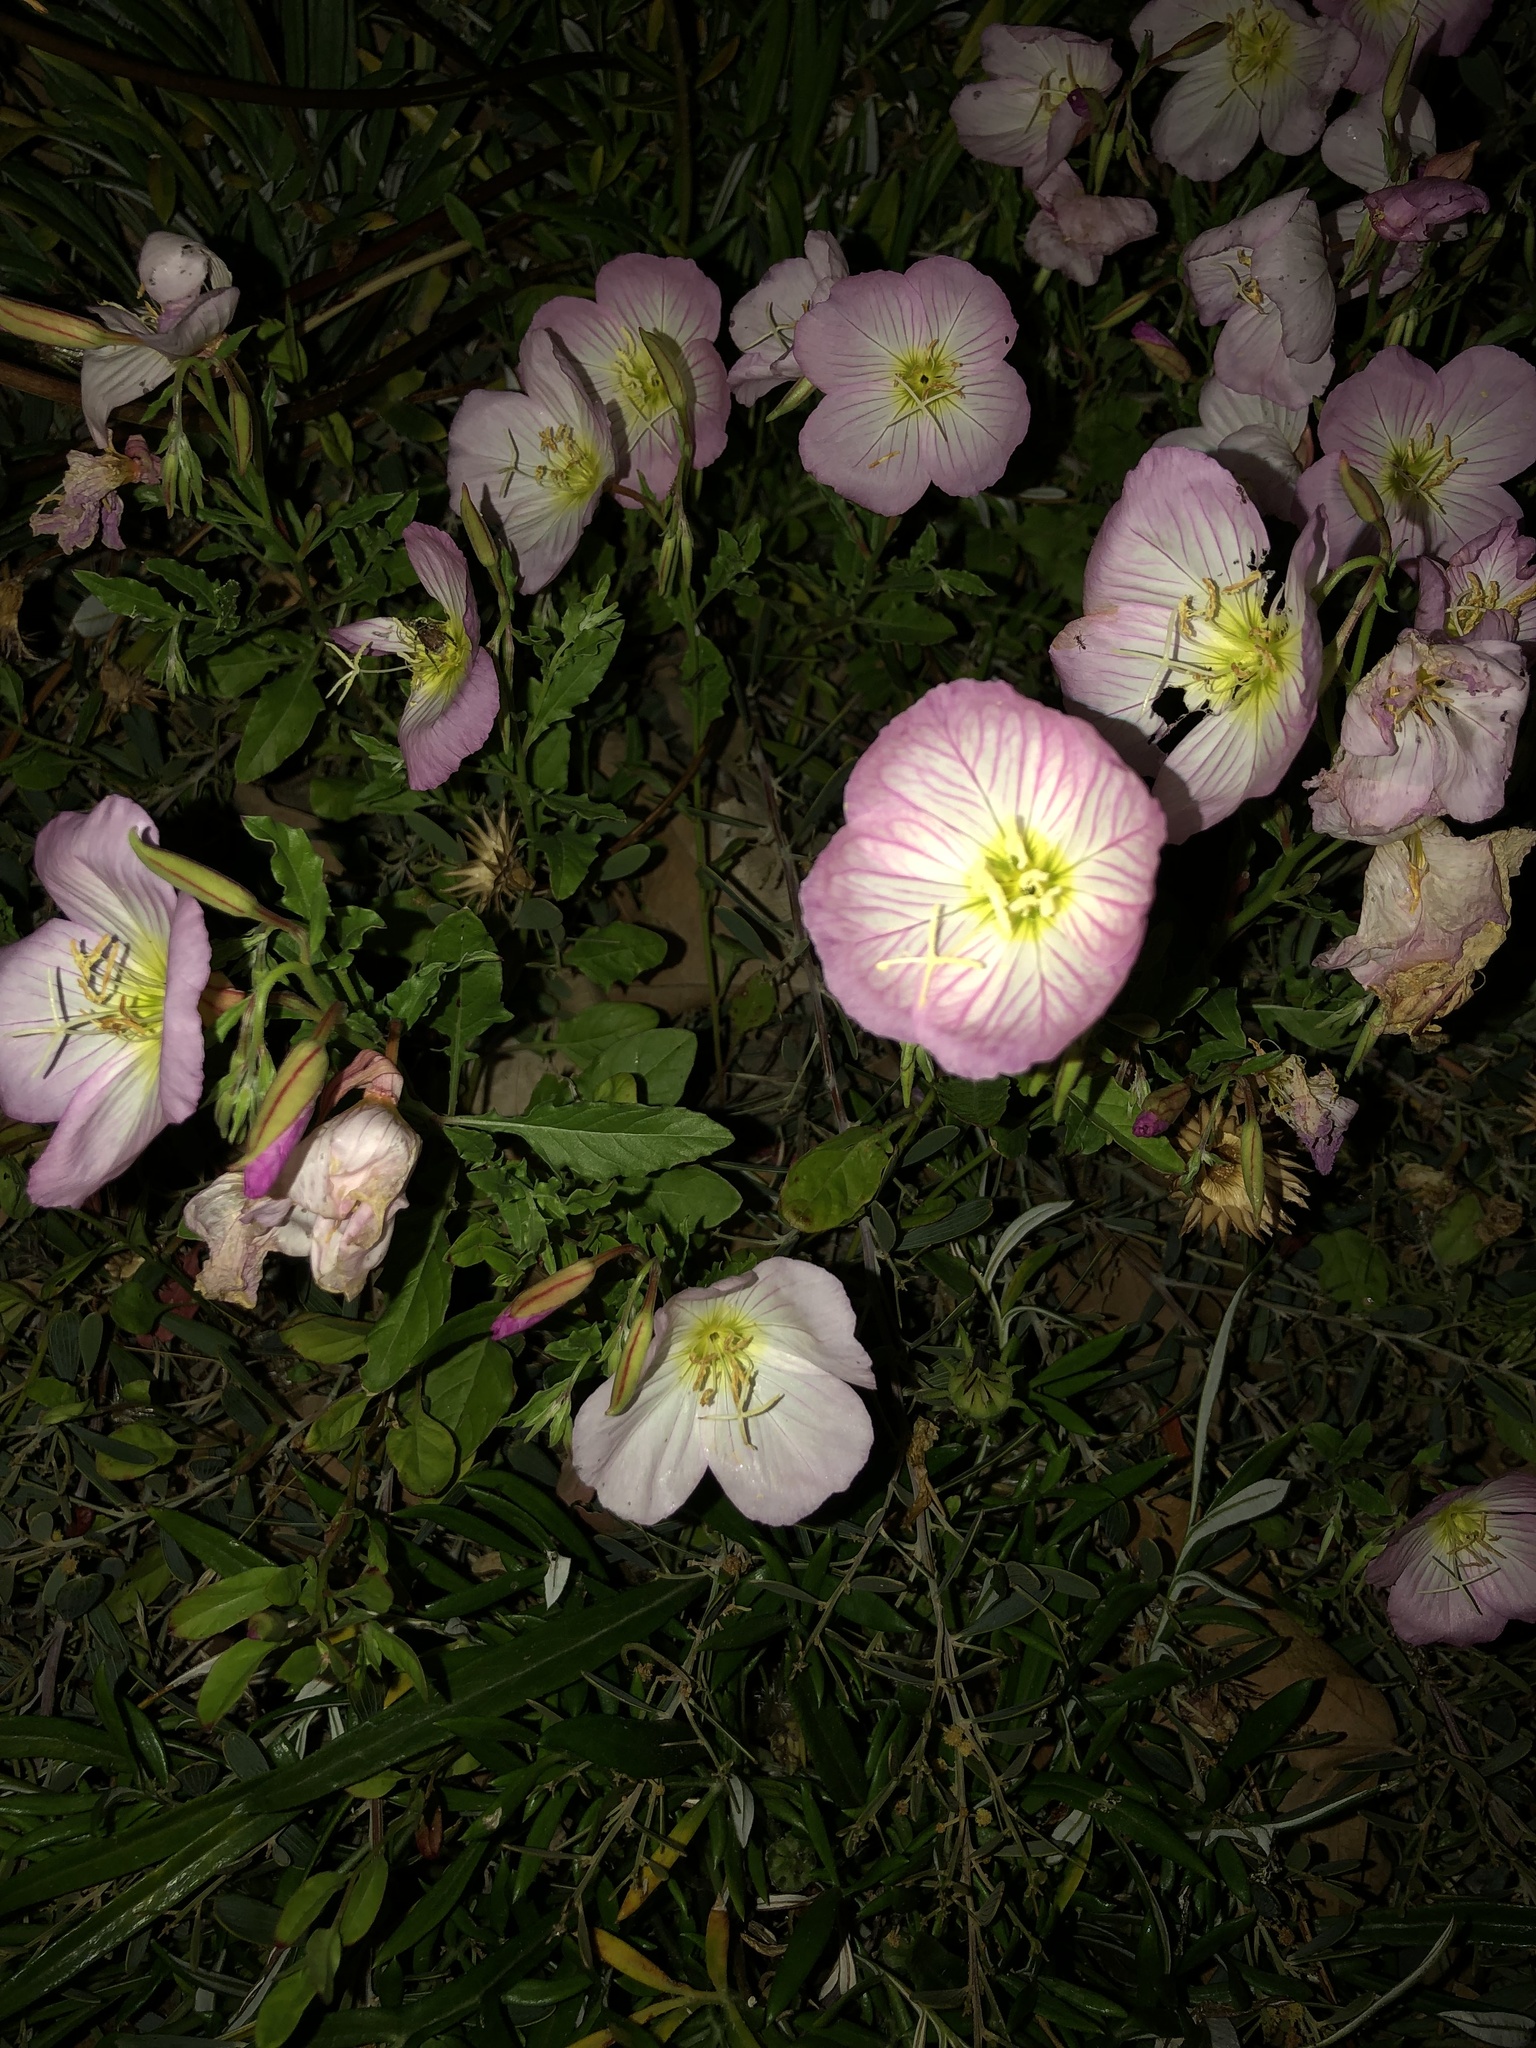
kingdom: Plantae
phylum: Tracheophyta
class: Magnoliopsida
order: Myrtales
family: Onagraceae
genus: Oenothera
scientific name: Oenothera speciosa
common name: White evening-primrose
